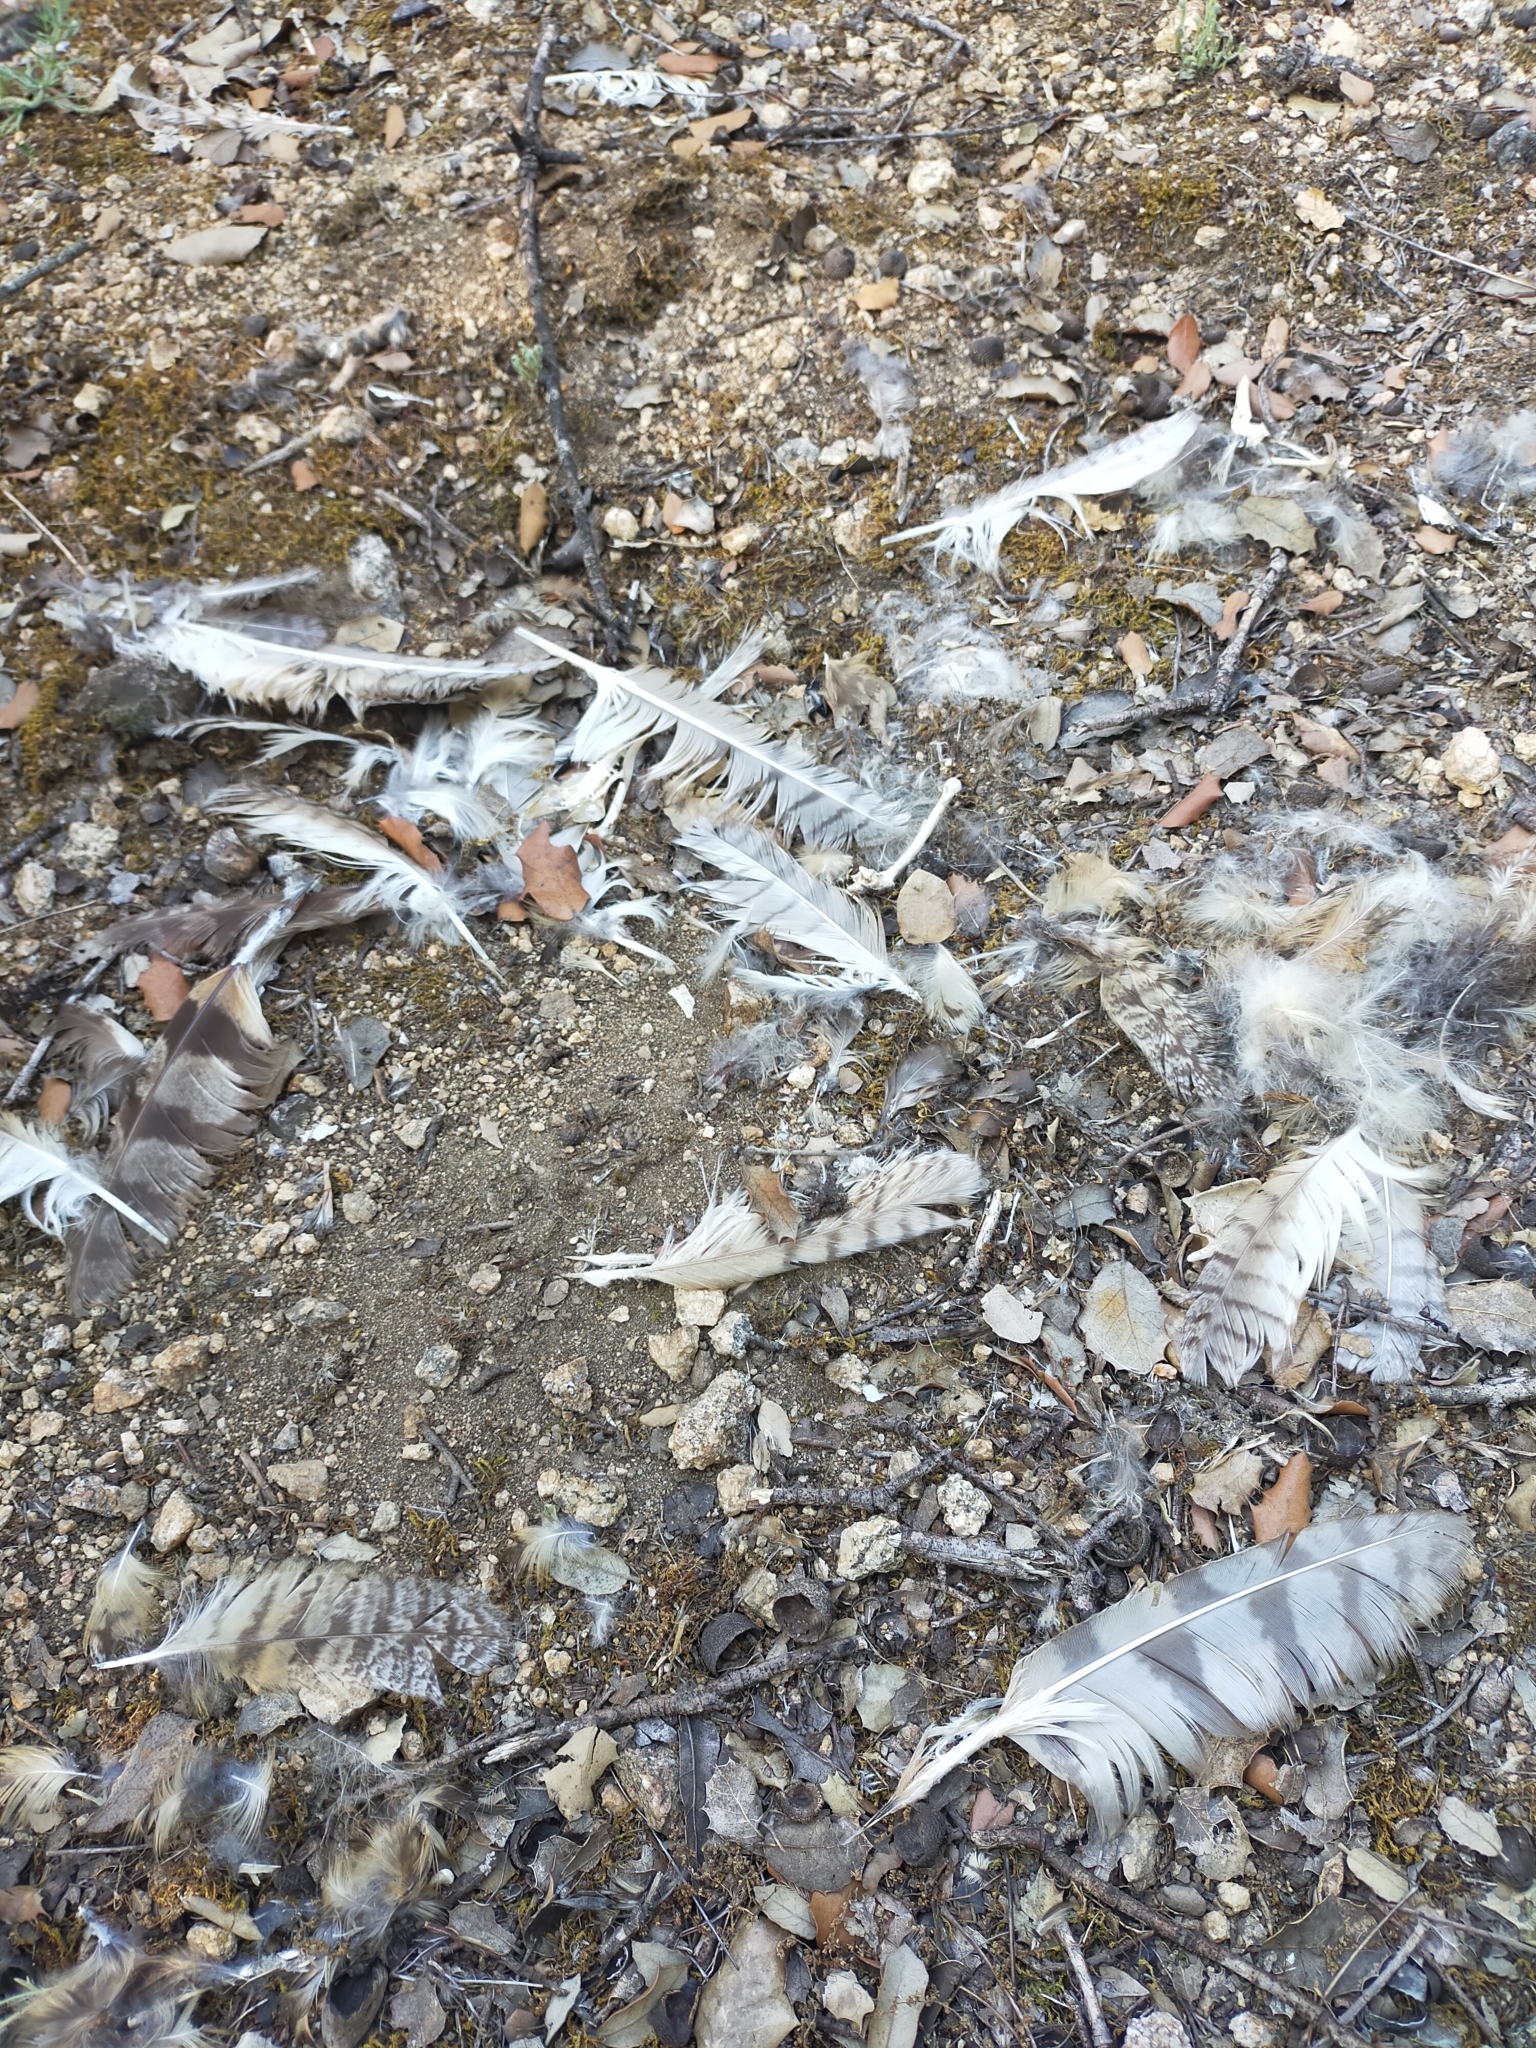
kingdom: Animalia
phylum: Chordata
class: Aves
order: Strigiformes
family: Strigidae
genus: Asio
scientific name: Asio otus
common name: Long-eared owl
